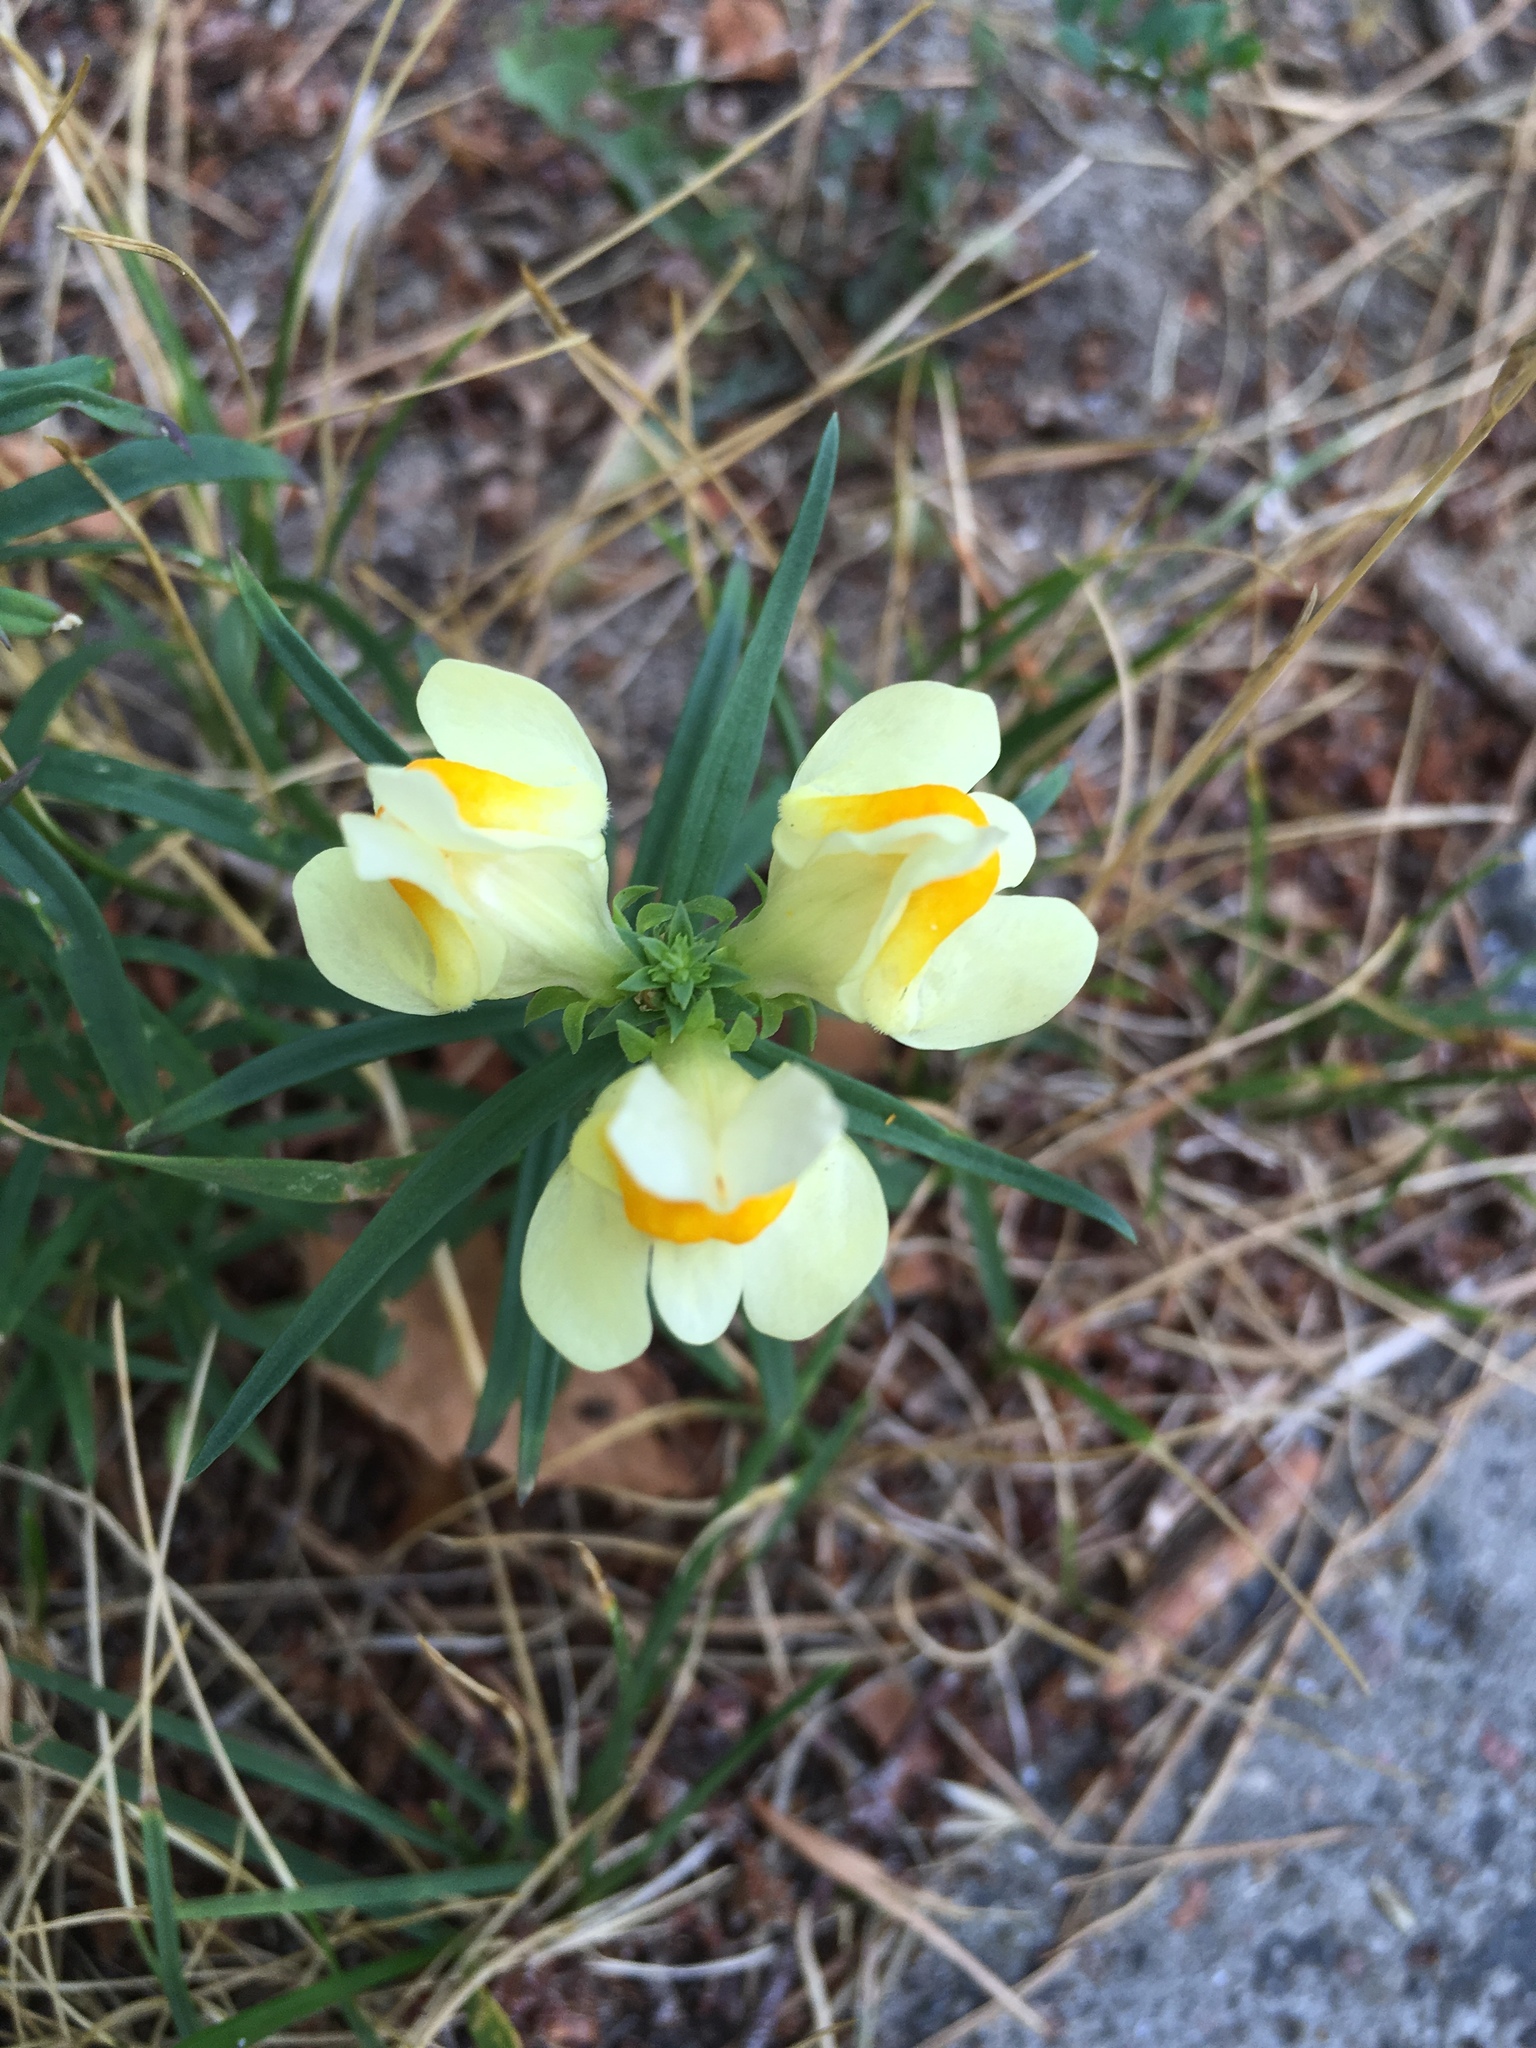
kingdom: Plantae
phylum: Tracheophyta
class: Magnoliopsida
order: Lamiales
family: Plantaginaceae
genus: Linaria
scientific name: Linaria vulgaris
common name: Butter and eggs
